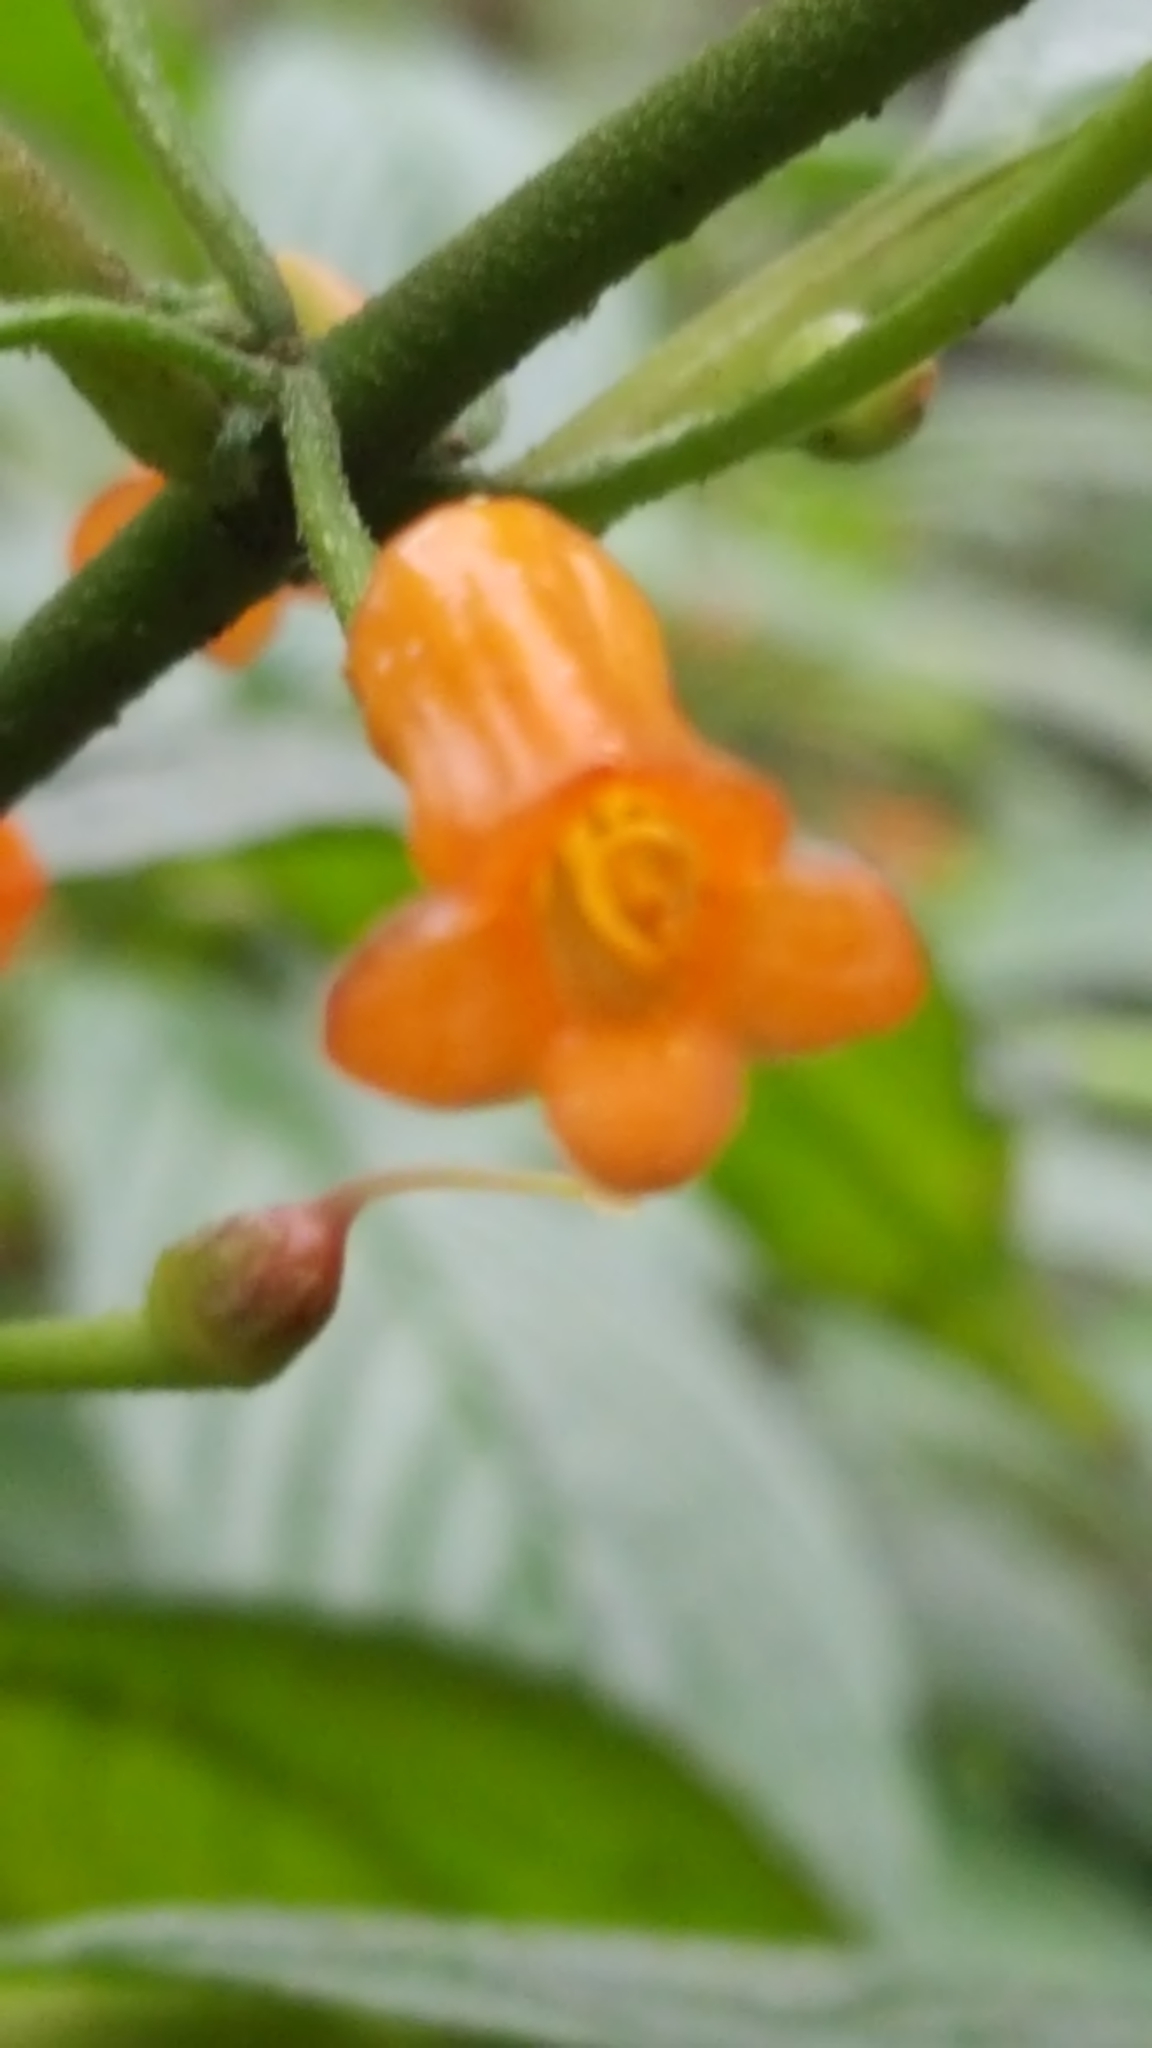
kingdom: Plantae
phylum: Tracheophyta
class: Magnoliopsida
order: Lamiales
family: Gesneriaceae
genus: Besleria
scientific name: Besleria solanoides
